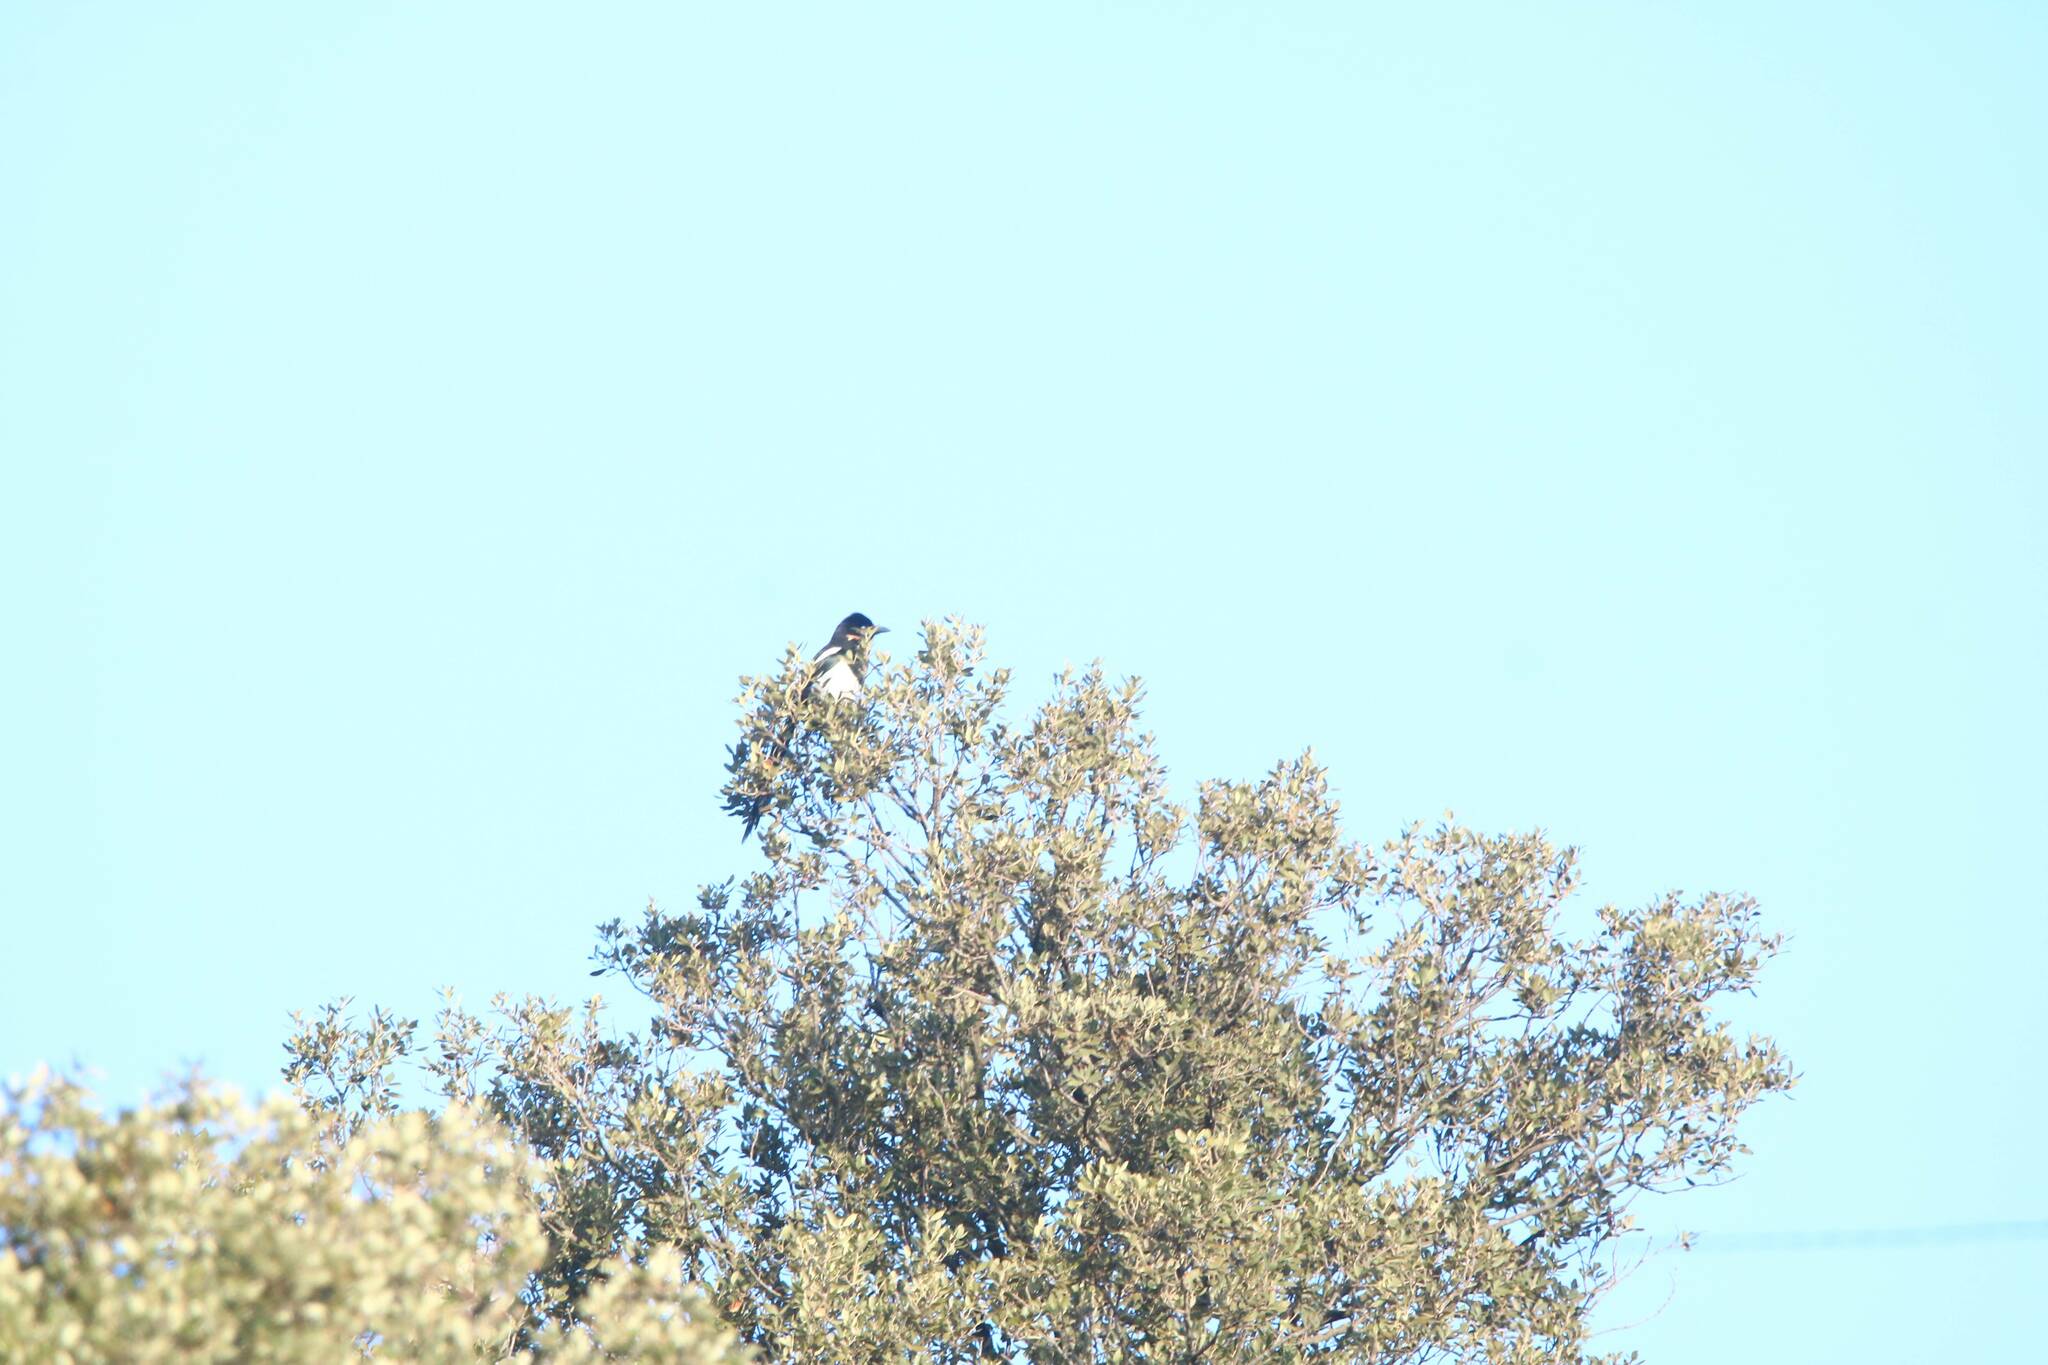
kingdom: Animalia
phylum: Chordata
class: Aves
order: Passeriformes
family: Corvidae
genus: Pica
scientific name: Pica mauritanica
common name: Maghreb magpie
